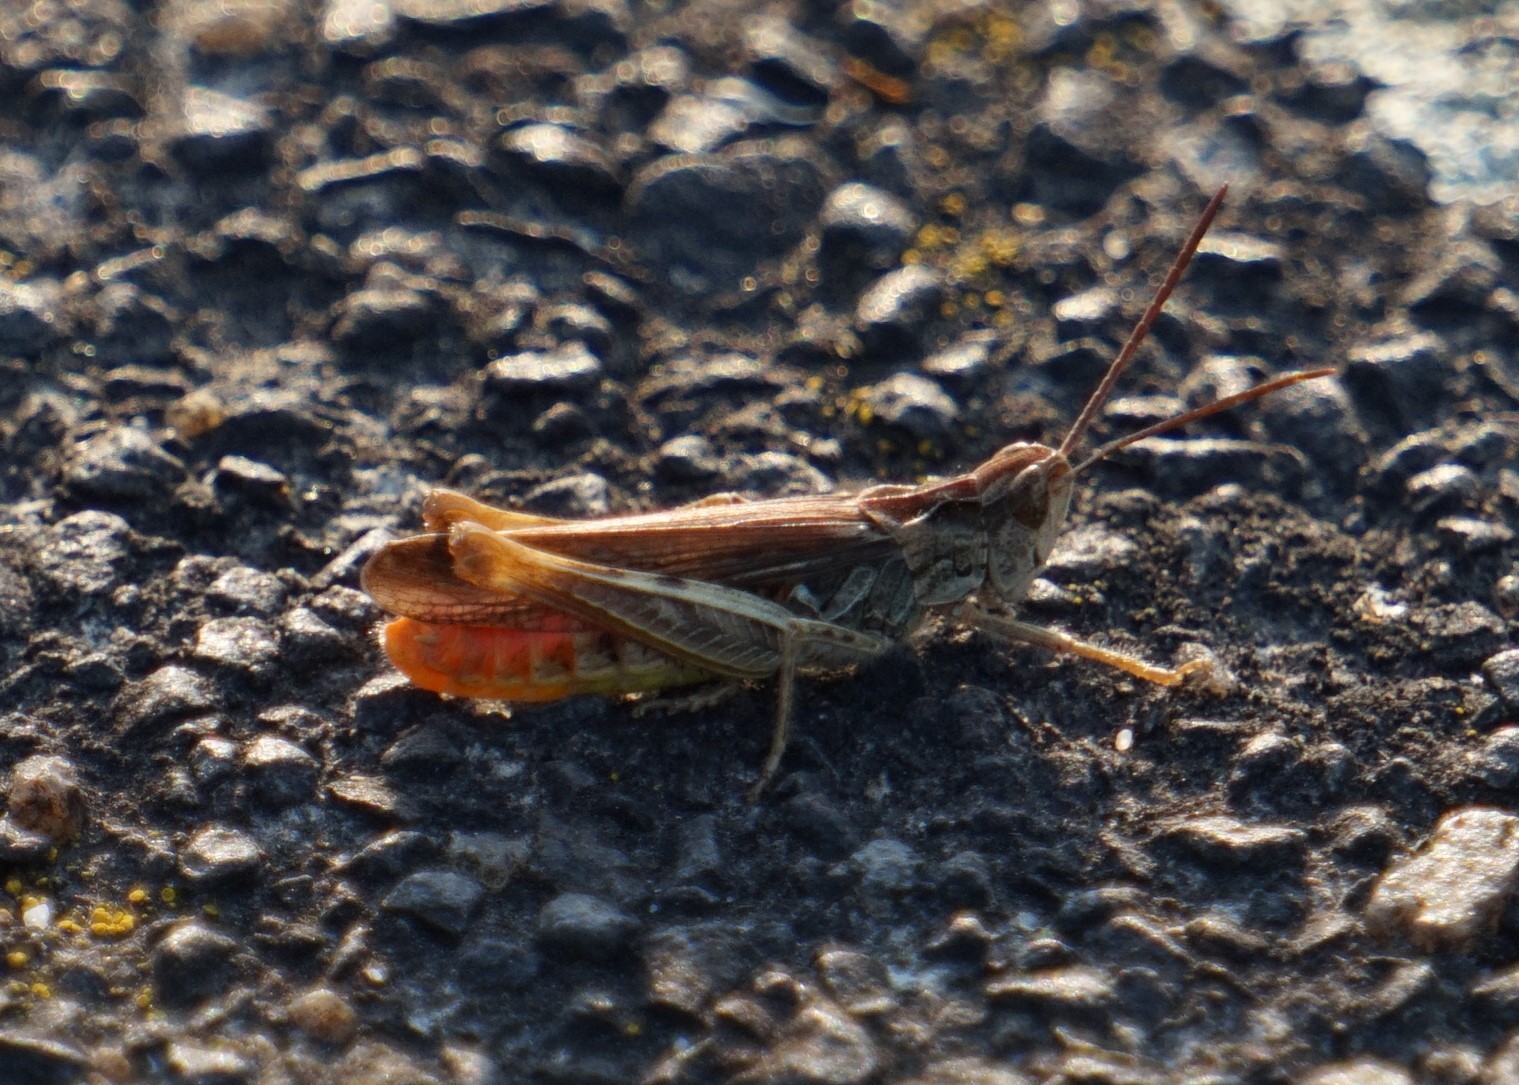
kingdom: Animalia
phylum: Arthropoda
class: Insecta
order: Orthoptera
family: Acrididae
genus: Chorthippus
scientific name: Chorthippus brunneus
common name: Field grasshopper
